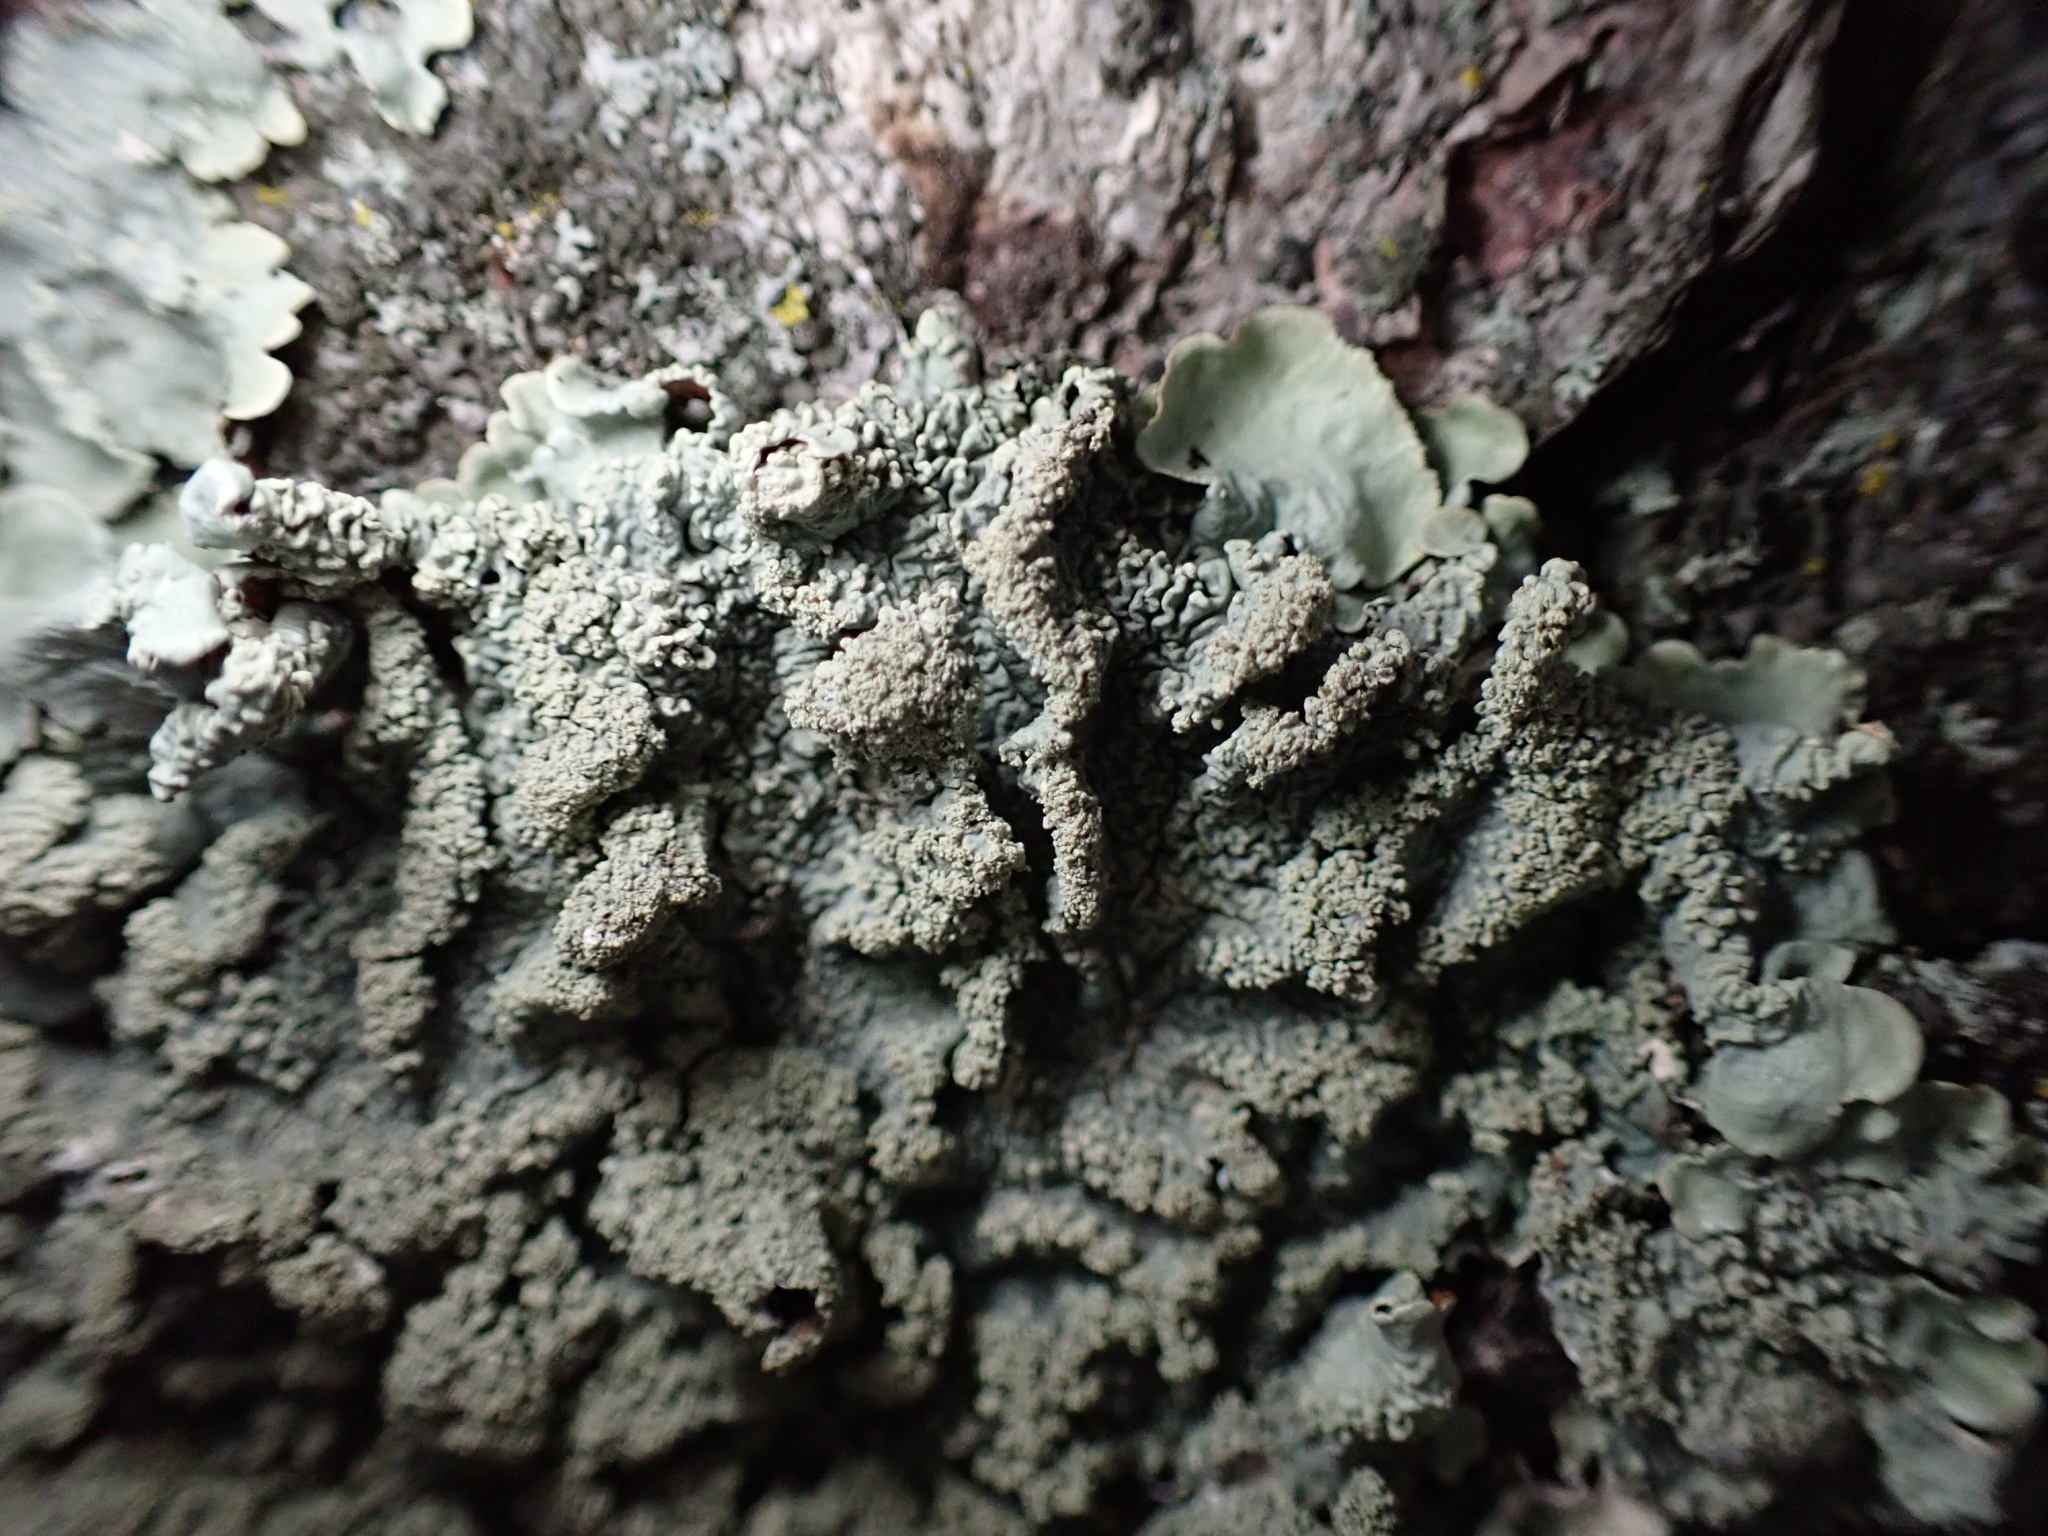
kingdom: Fungi
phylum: Ascomycota
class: Lecanoromycetes
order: Lecanorales
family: Parmeliaceae
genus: Flavoparmelia
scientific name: Flavoparmelia caperata
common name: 40-mile per hour lichen
